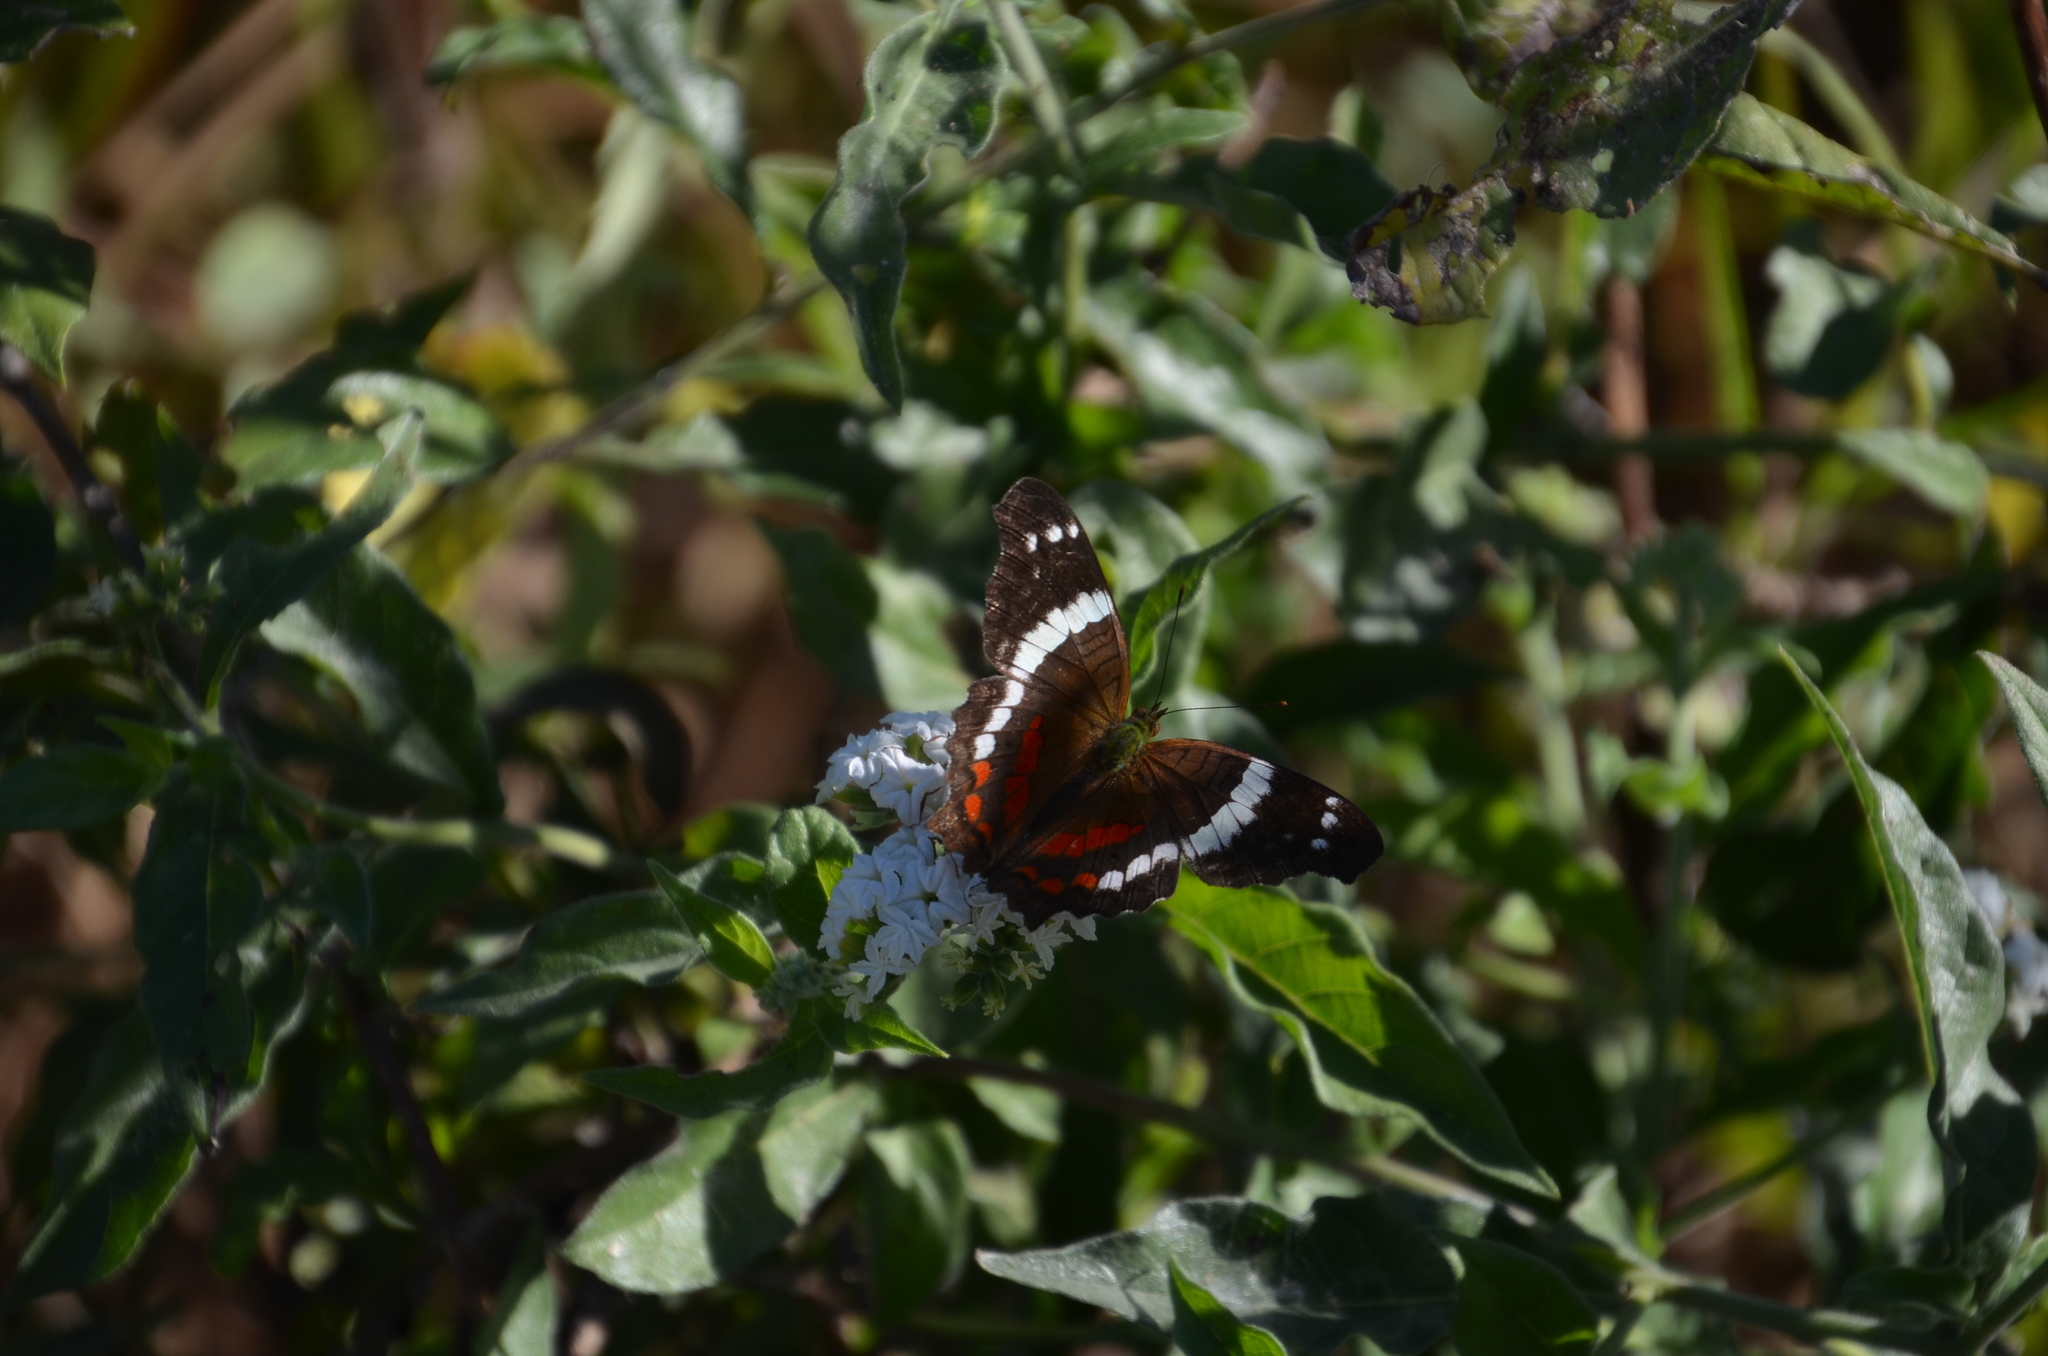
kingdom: Animalia
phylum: Arthropoda
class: Insecta
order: Lepidoptera
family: Nymphalidae
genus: Anartia
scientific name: Anartia fatima
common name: Banded peacock
